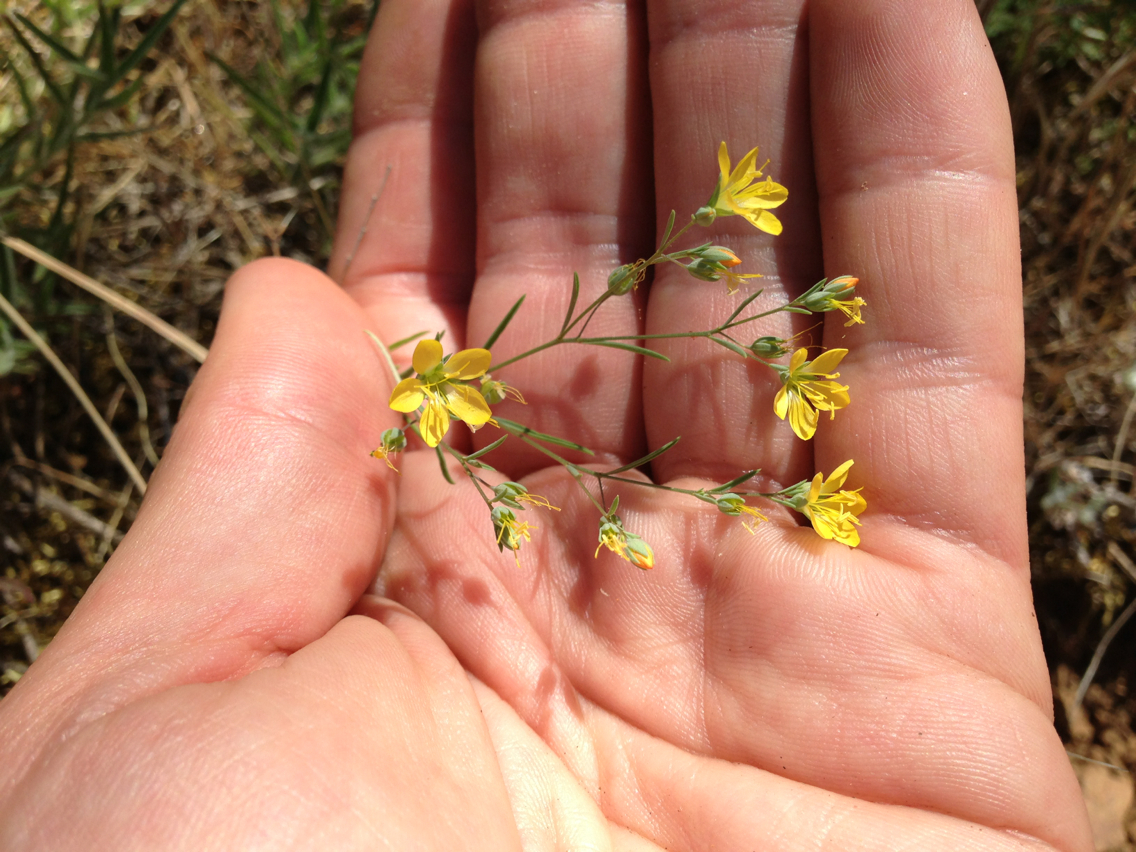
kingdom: Plantae
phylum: Tracheophyta
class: Magnoliopsida
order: Malpighiales
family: Linaceae
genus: Hesperolinon
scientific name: Hesperolinon breweri
